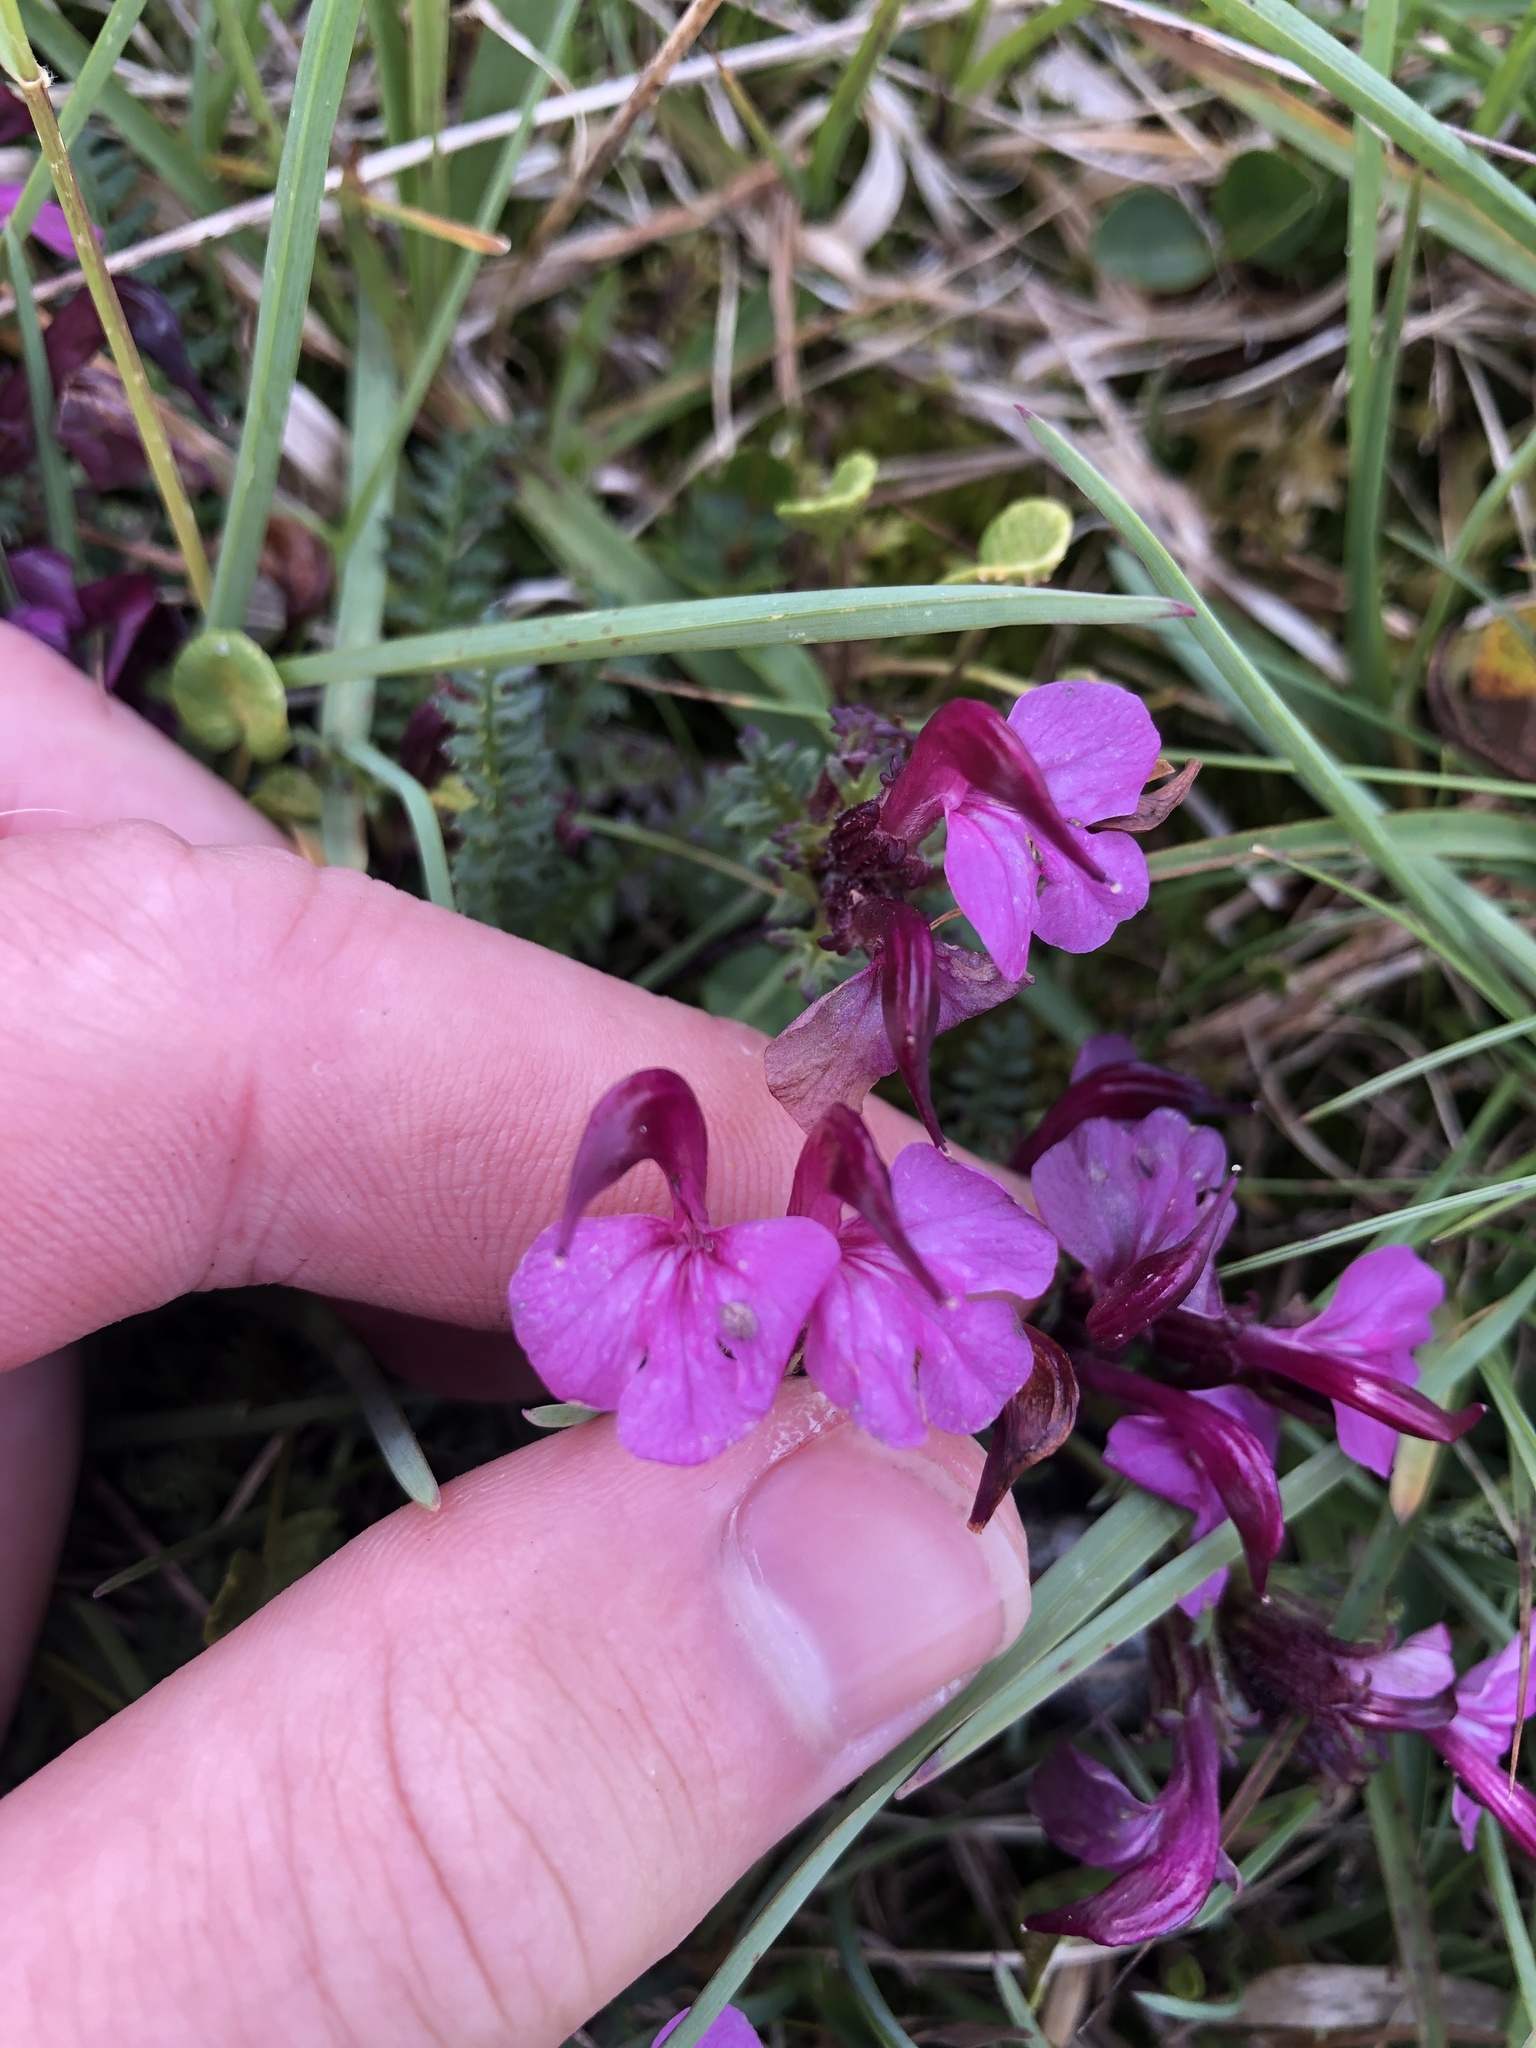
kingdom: Plantae
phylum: Tracheophyta
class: Magnoliopsida
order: Lamiales
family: Orobanchaceae
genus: Pedicularis
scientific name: Pedicularis kerneri
